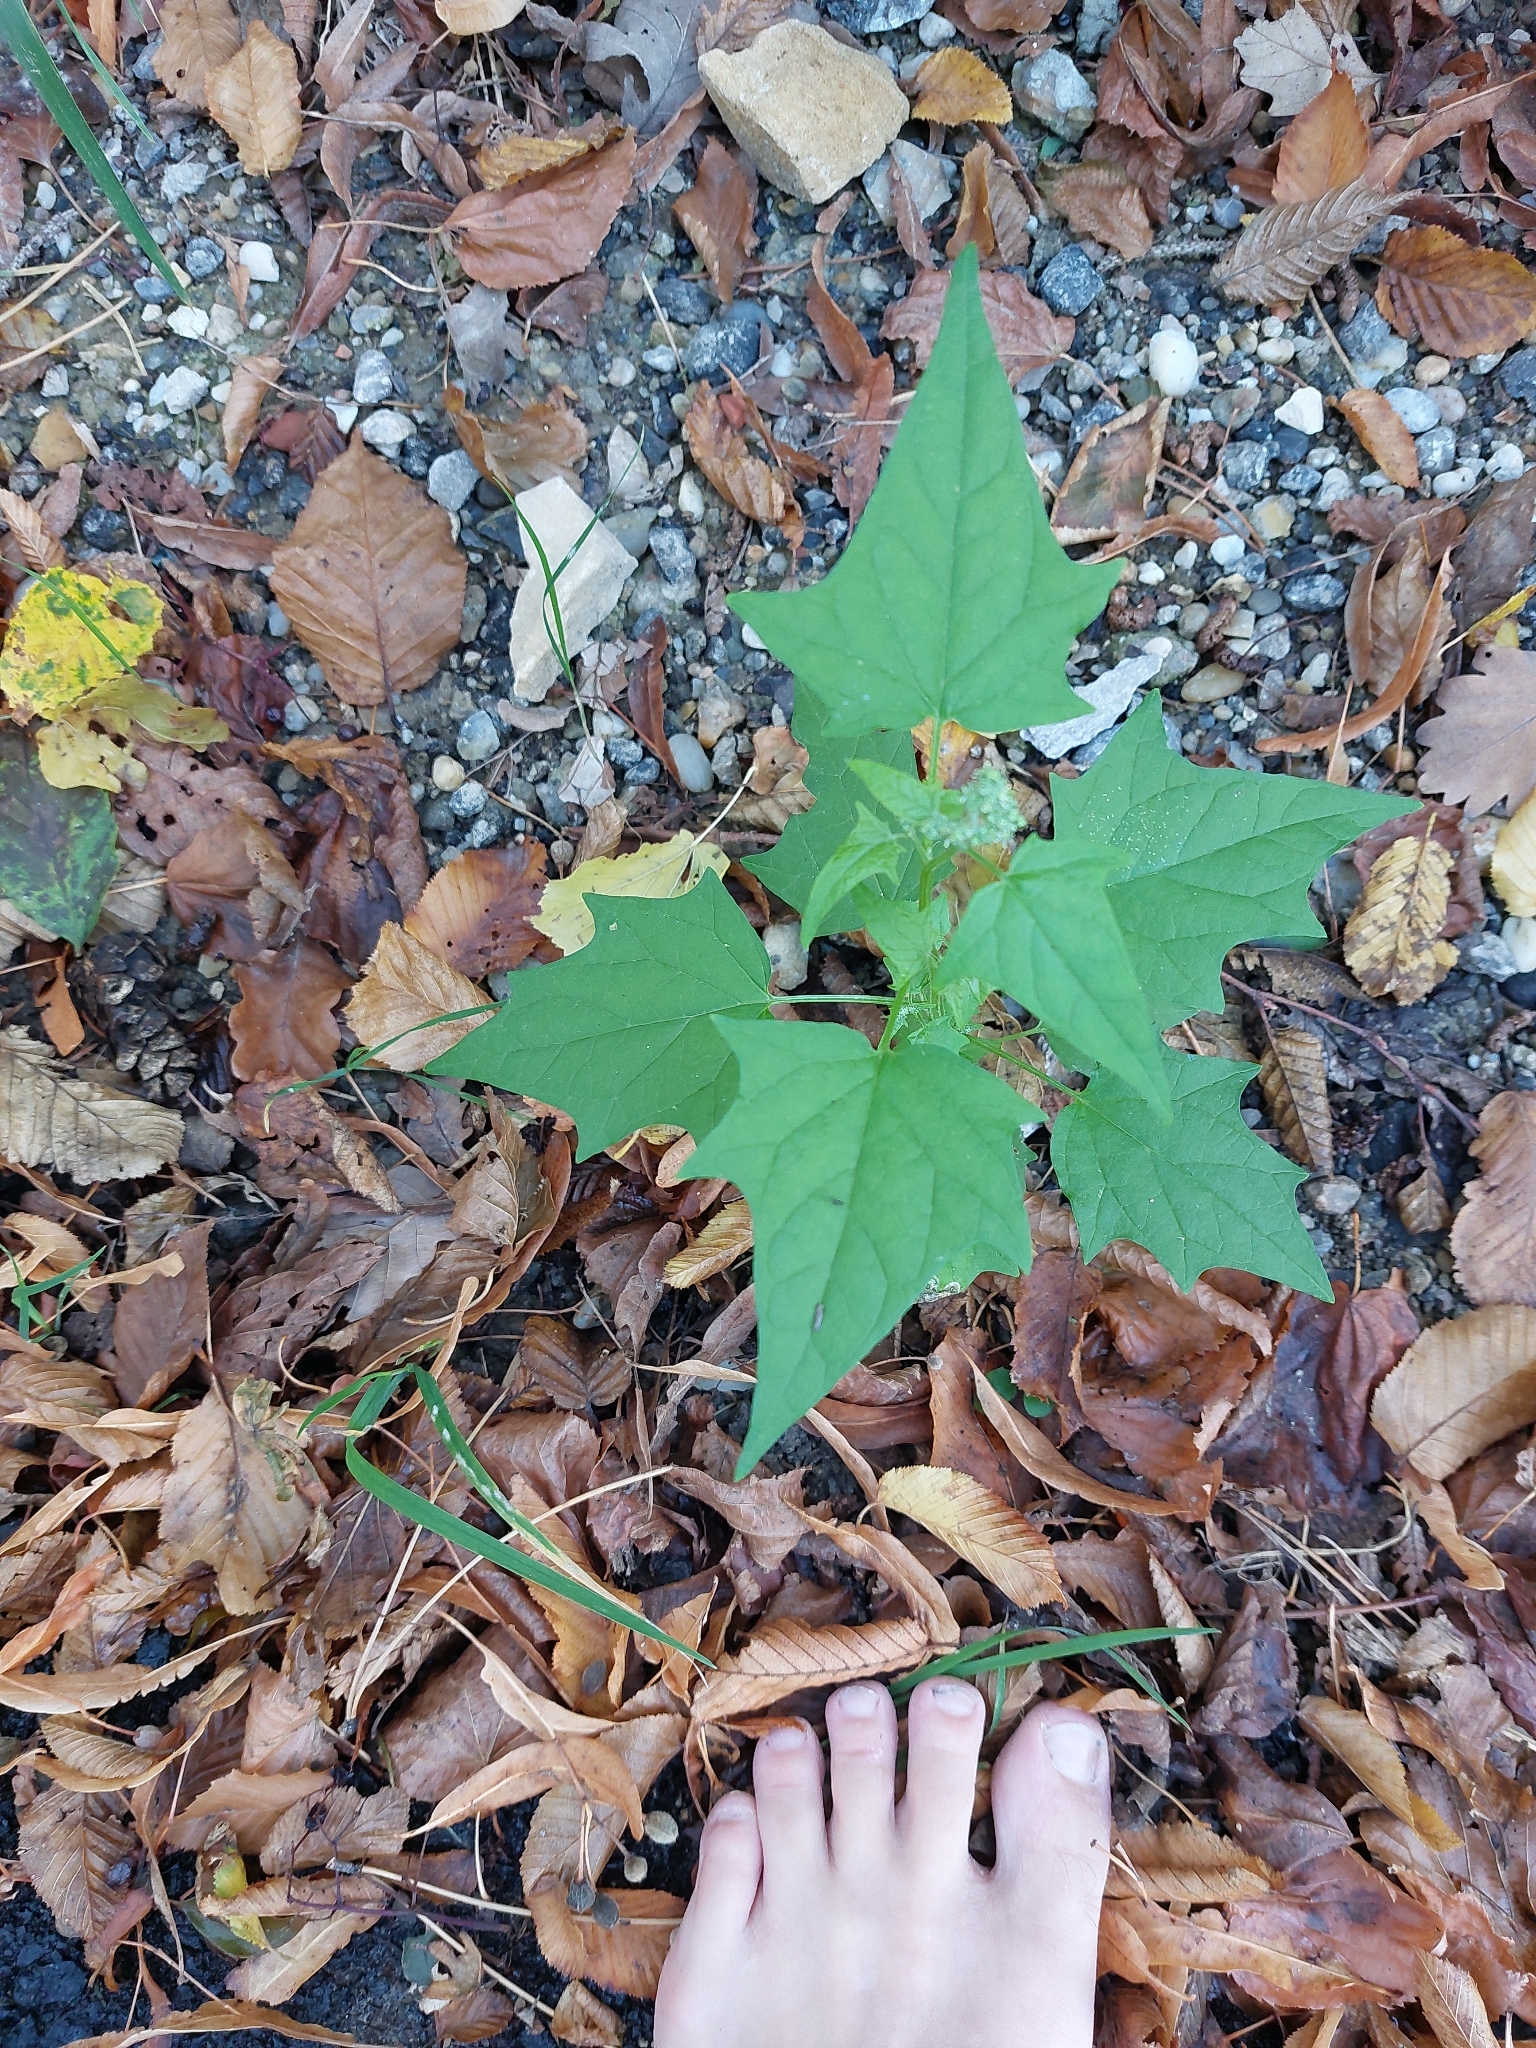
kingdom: Plantae
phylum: Tracheophyta
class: Magnoliopsida
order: Caryophyllales
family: Amaranthaceae
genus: Chenopodiastrum
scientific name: Chenopodiastrum hybridum
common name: Mapleleaf goosefoot
